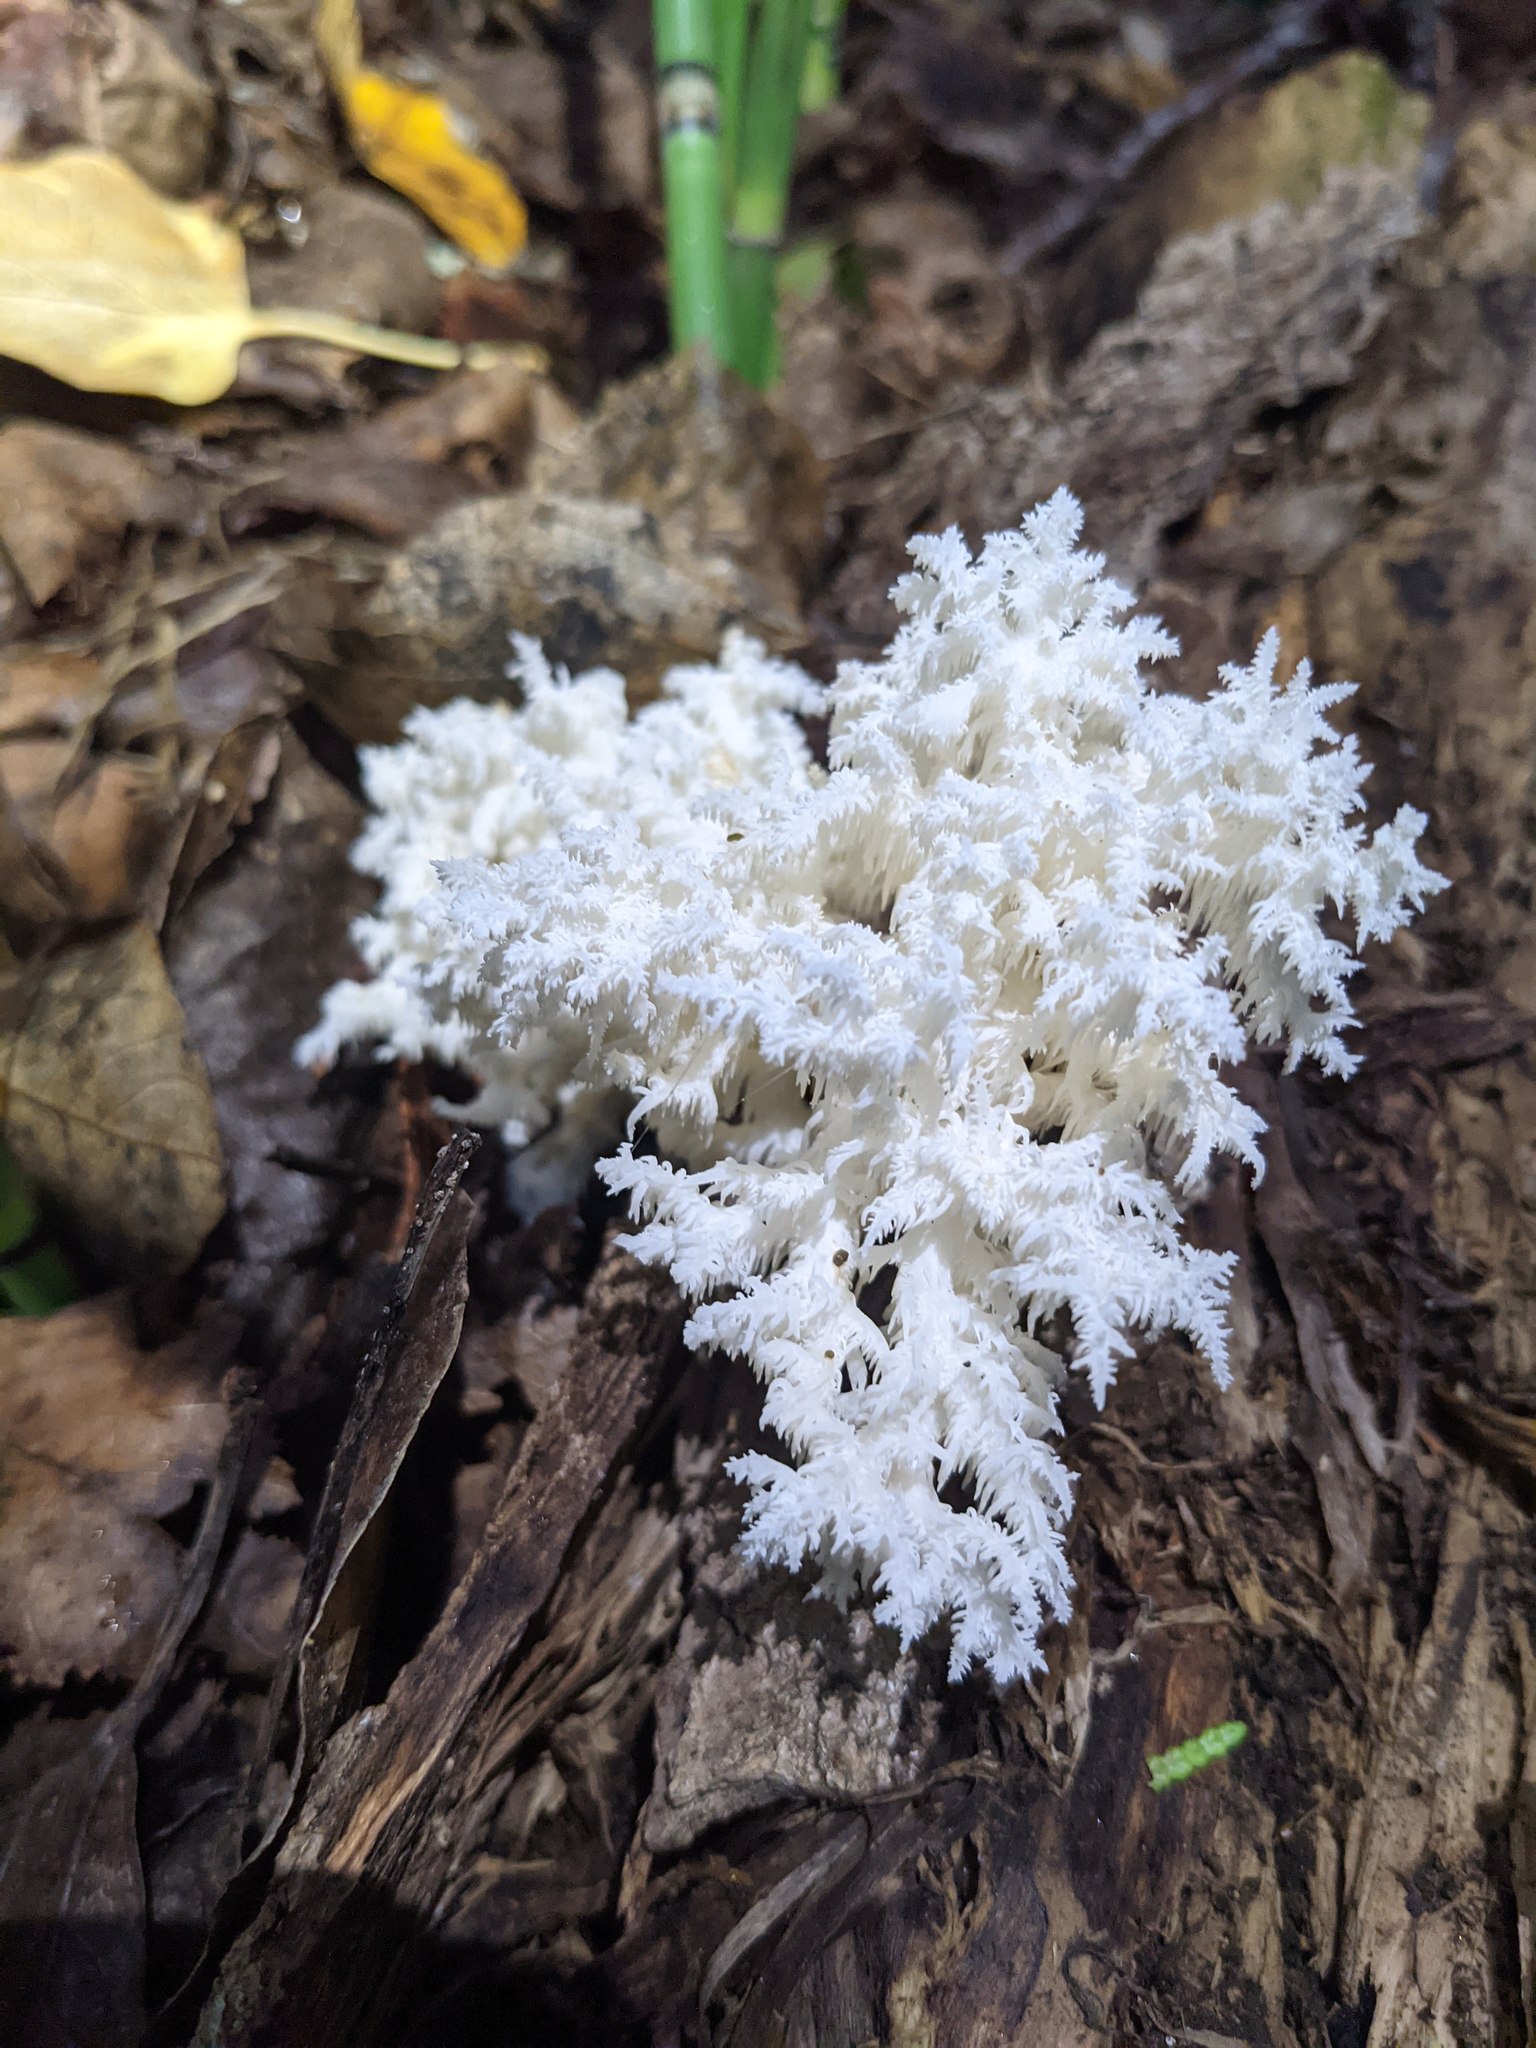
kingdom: Fungi
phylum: Basidiomycota
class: Agaricomycetes
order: Russulales
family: Hericiaceae
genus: Hericium
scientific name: Hericium coralloides
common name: Coral tooth
